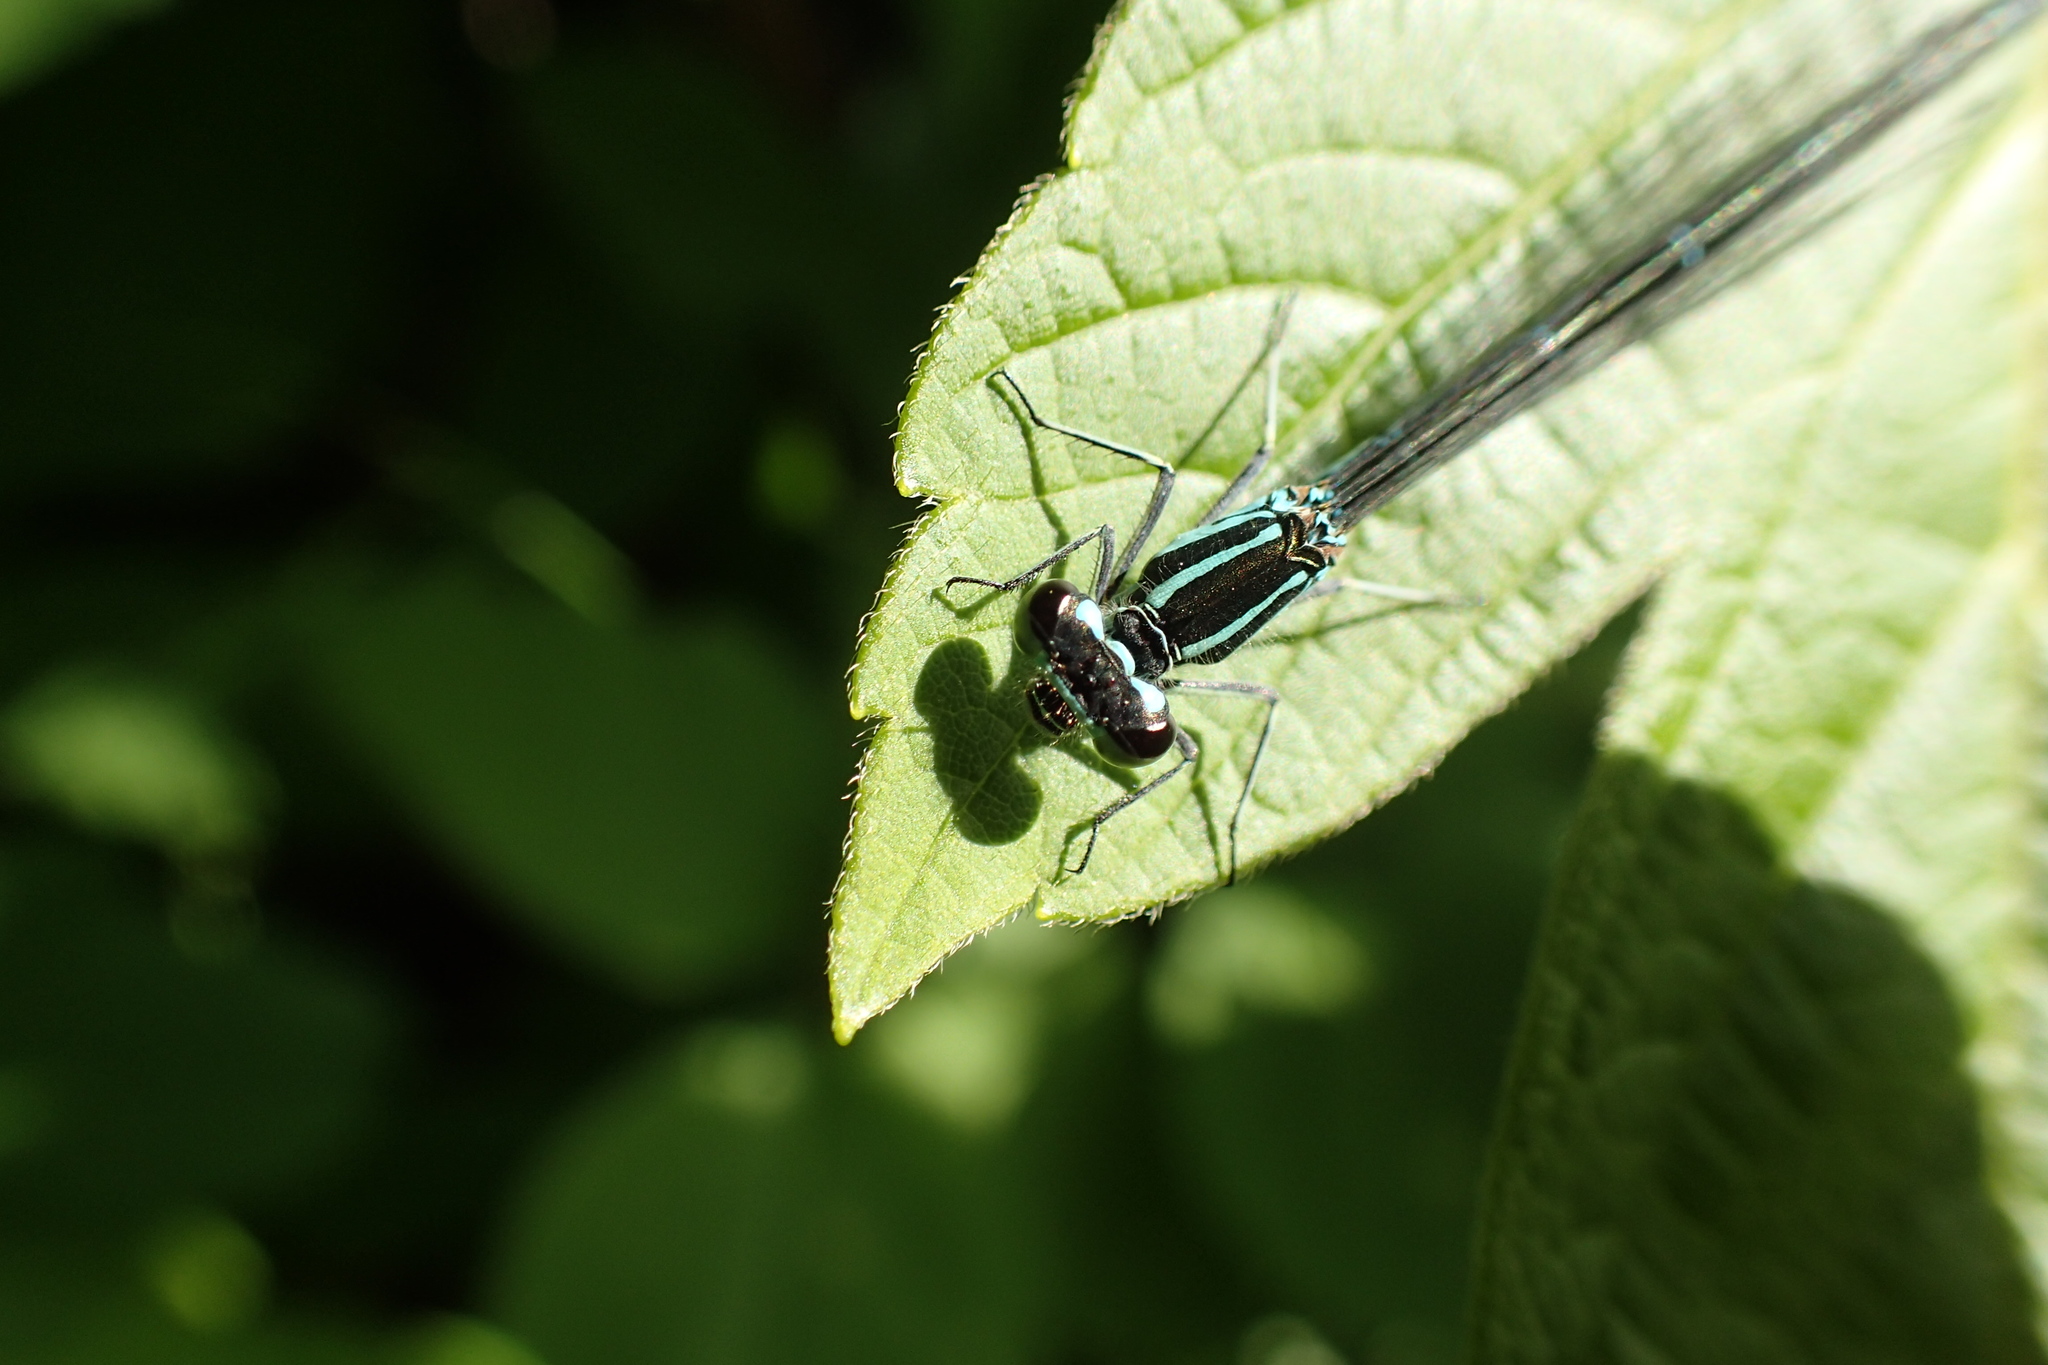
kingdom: Animalia
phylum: Arthropoda
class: Insecta
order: Odonata
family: Coenagrionidae
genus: Coenagrion
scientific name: Coenagrion puella
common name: Azure damselfly
